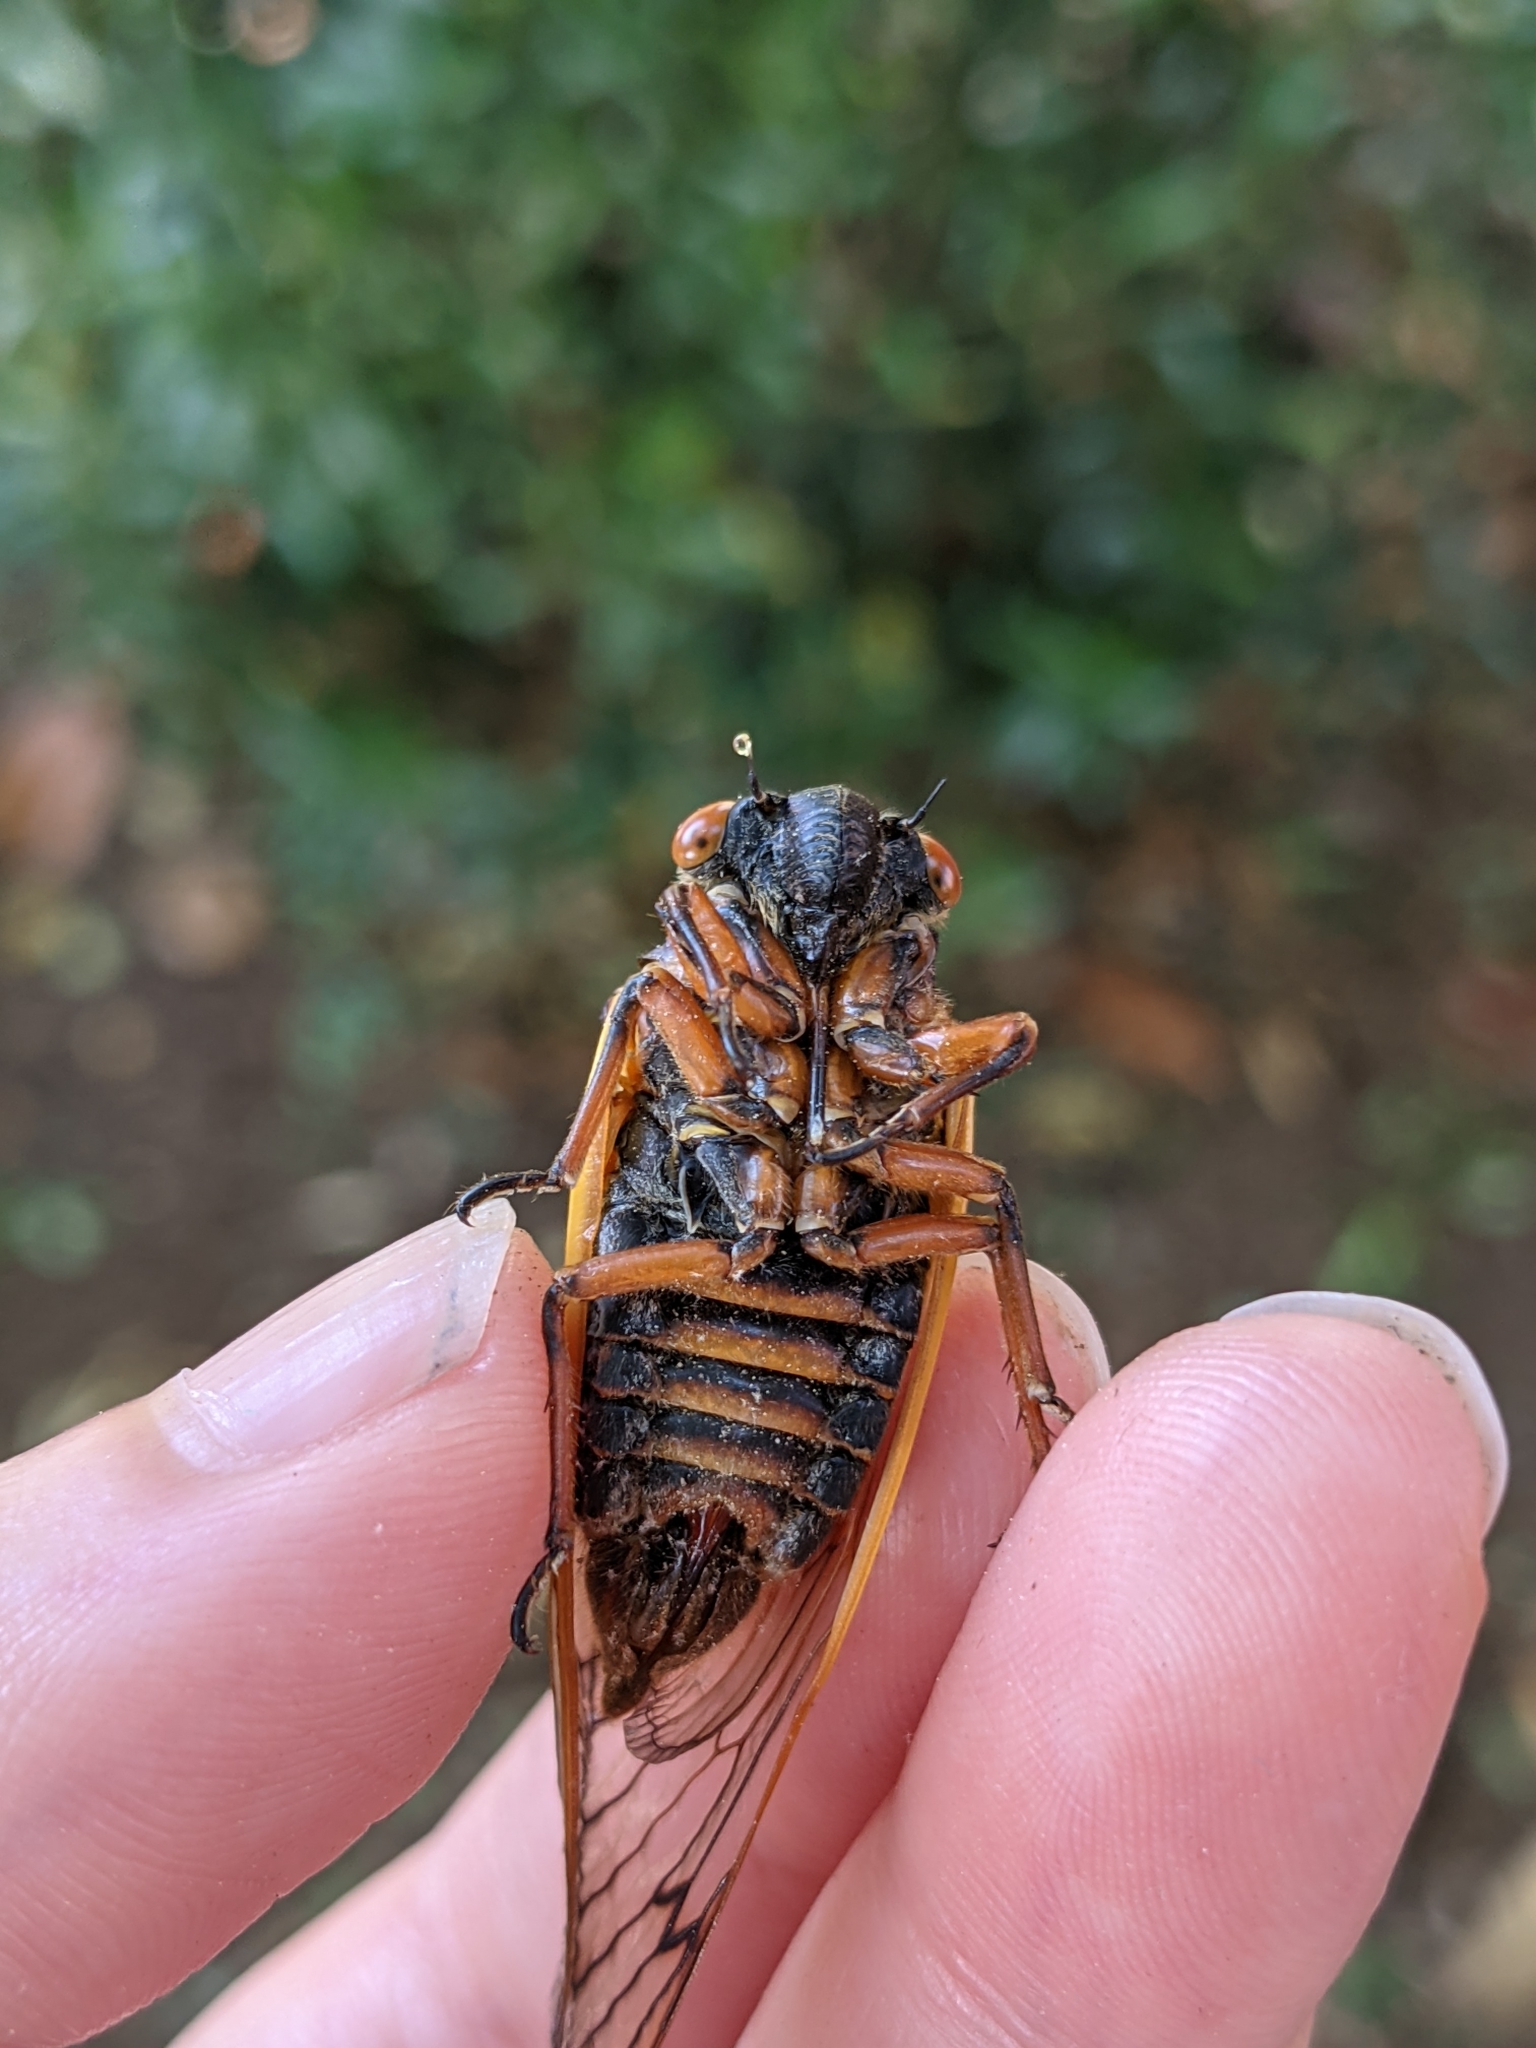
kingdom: Animalia
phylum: Arthropoda
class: Insecta
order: Hemiptera
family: Cicadidae
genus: Magicicada
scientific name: Magicicada septendecim
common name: Periodical cicada
